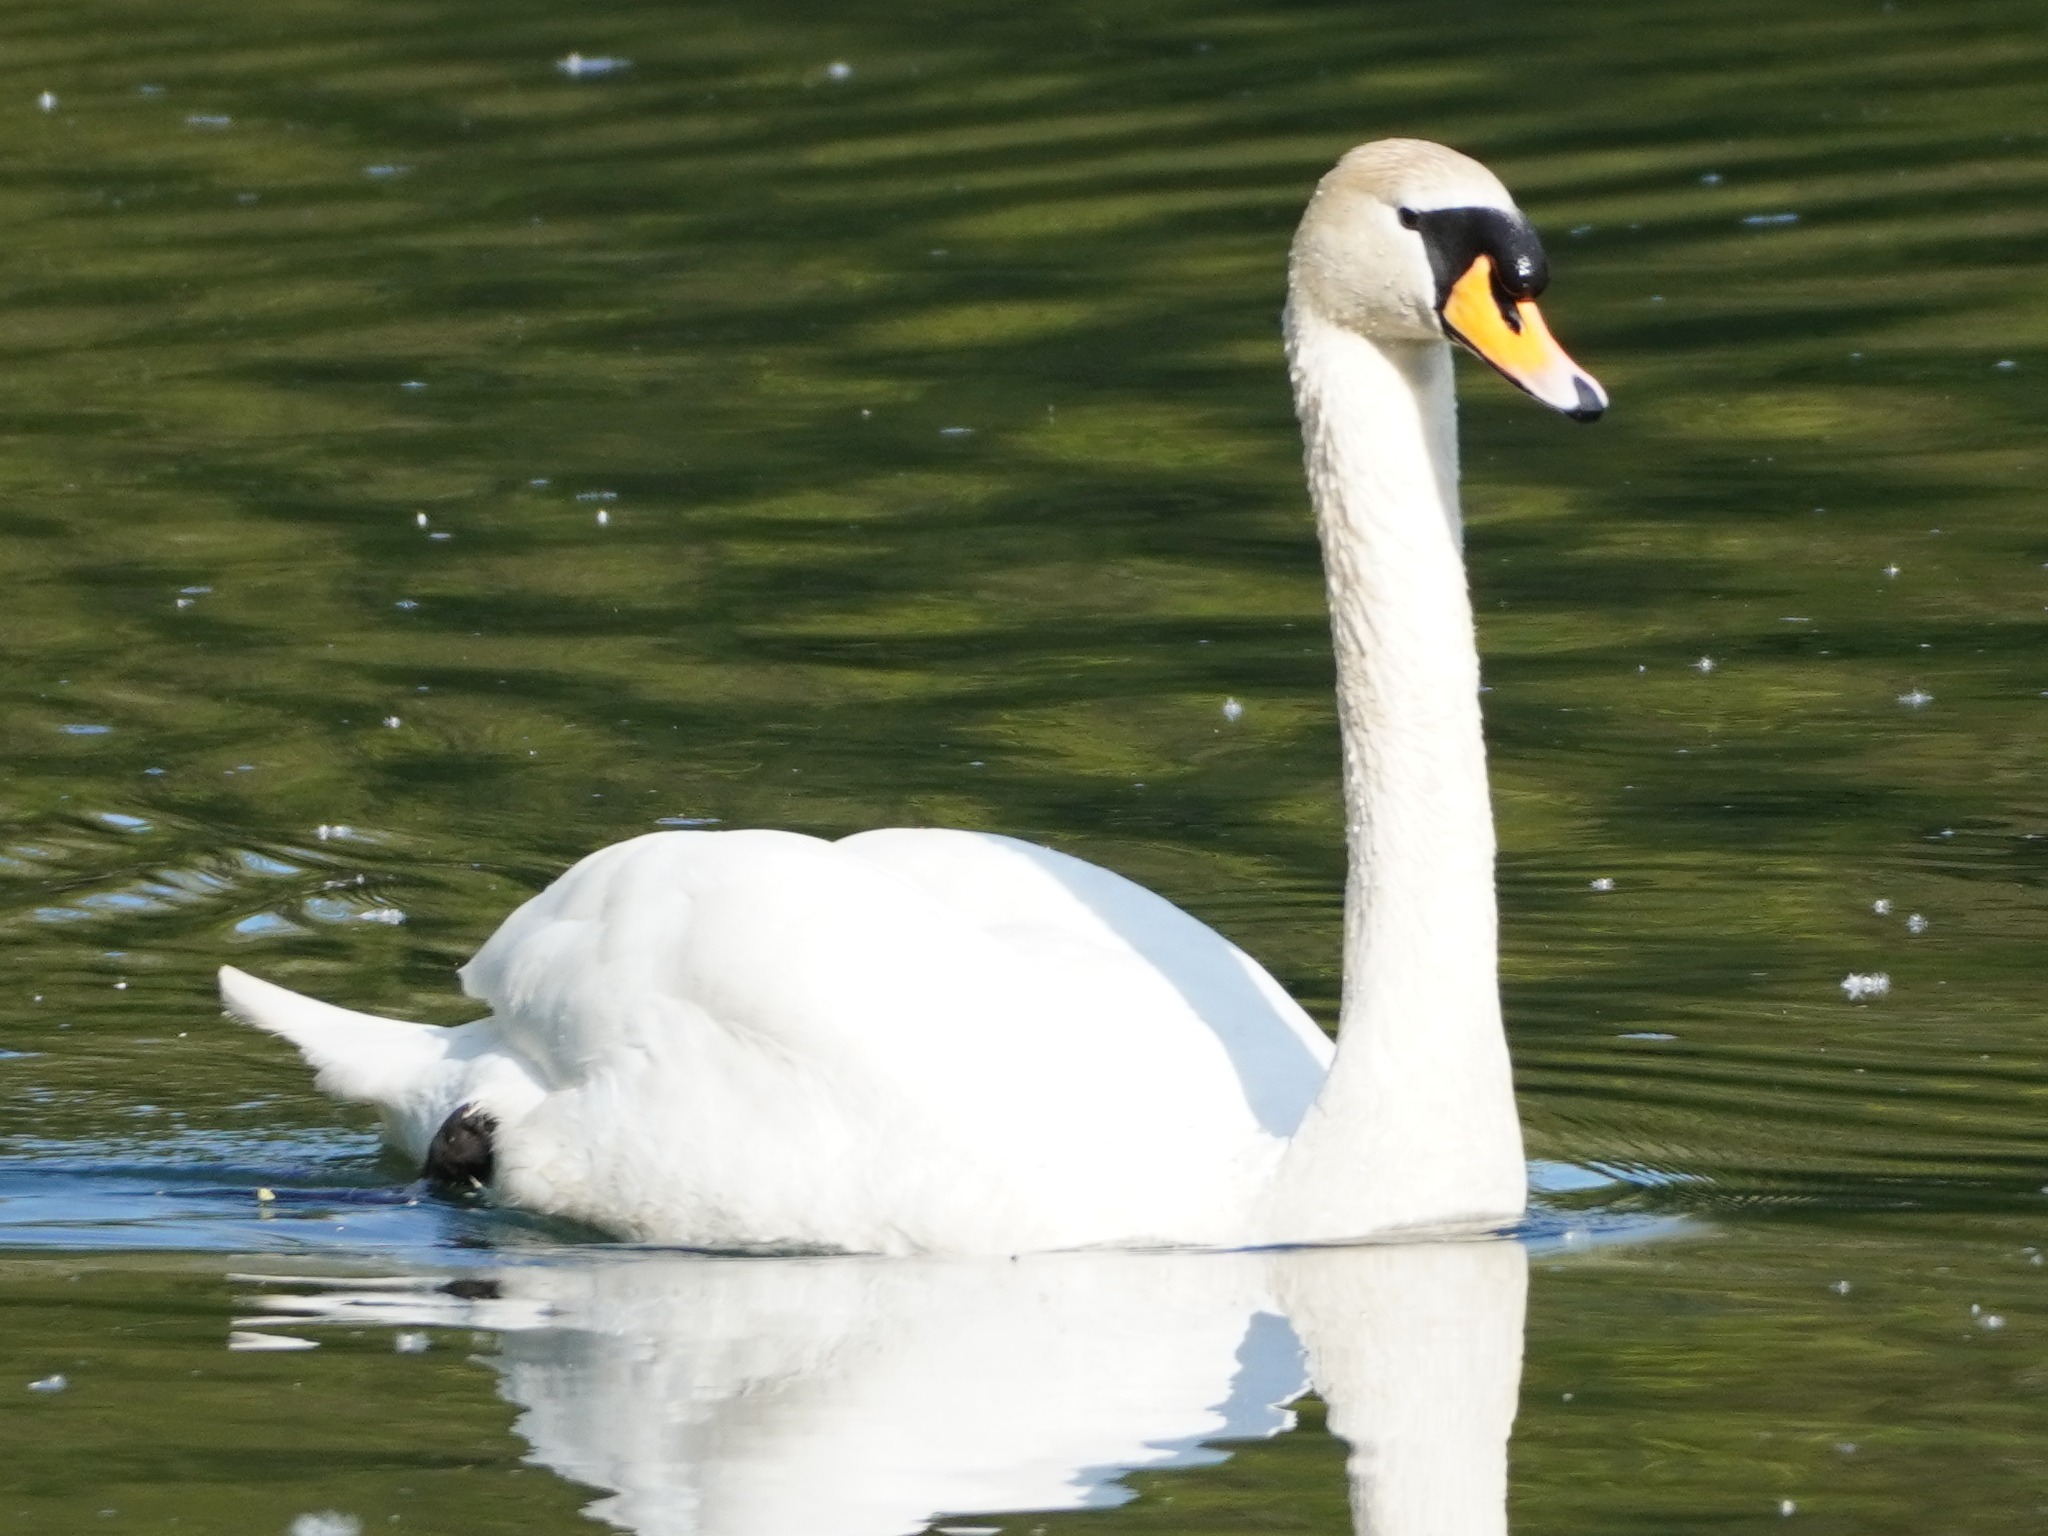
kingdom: Animalia
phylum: Chordata
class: Aves
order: Anseriformes
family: Anatidae
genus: Cygnus
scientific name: Cygnus olor
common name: Mute swan
